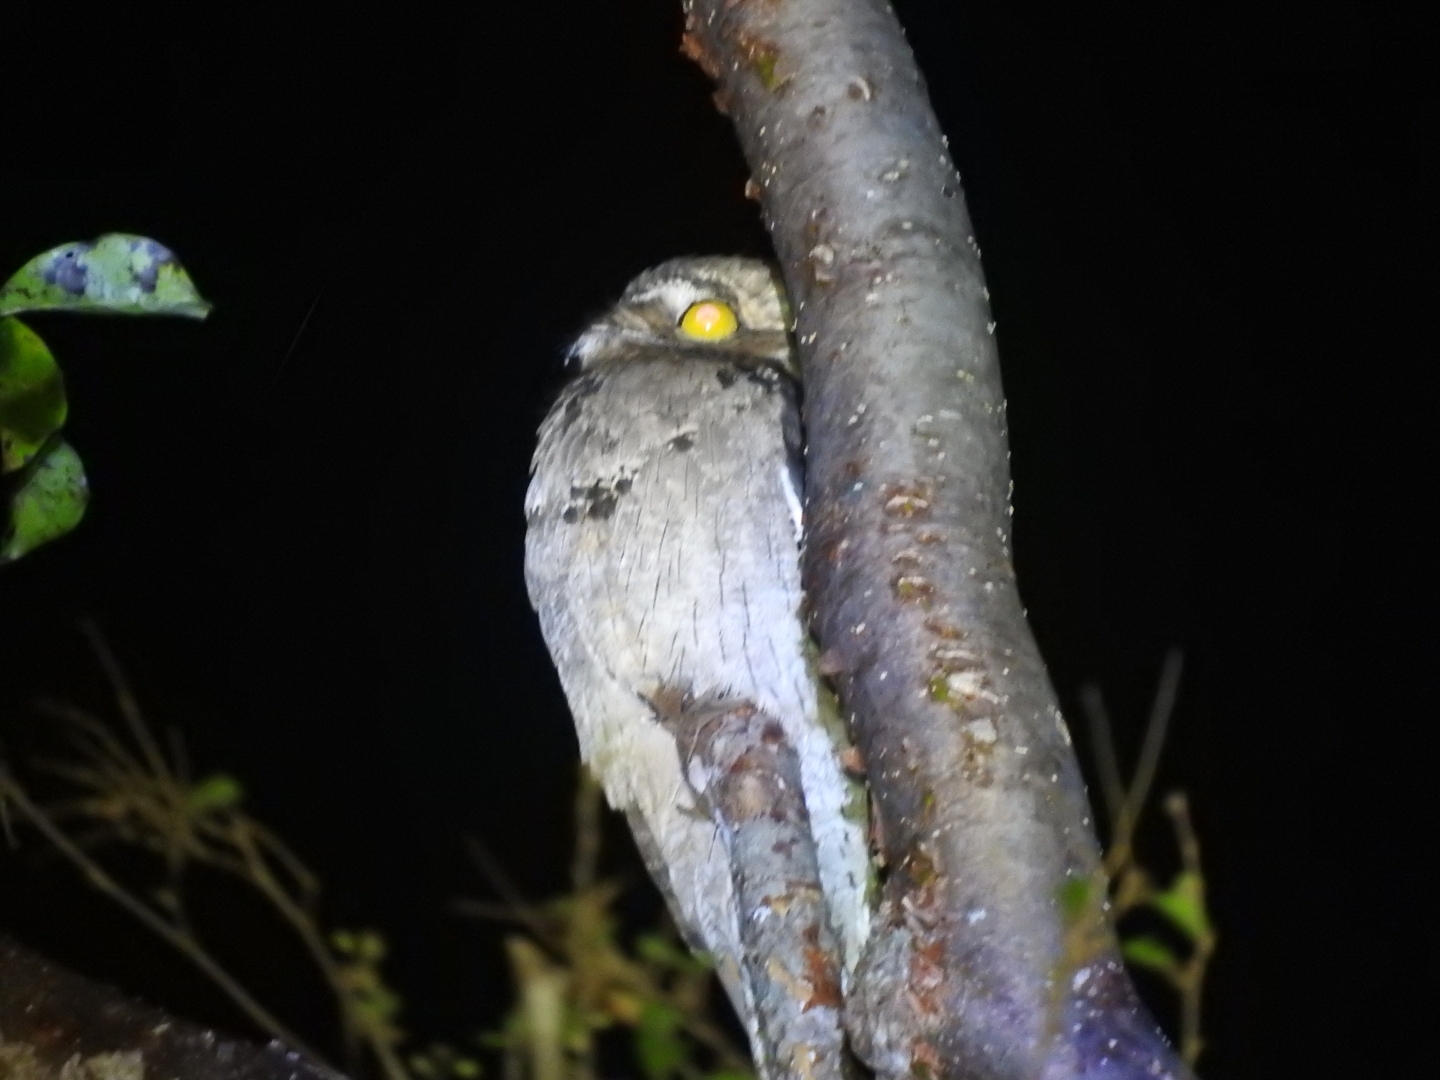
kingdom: Animalia
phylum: Chordata
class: Aves
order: Nyctibiiformes
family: Nyctibiidae
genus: Nyctibius
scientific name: Nyctibius jamaicensis
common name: Northern potoo
